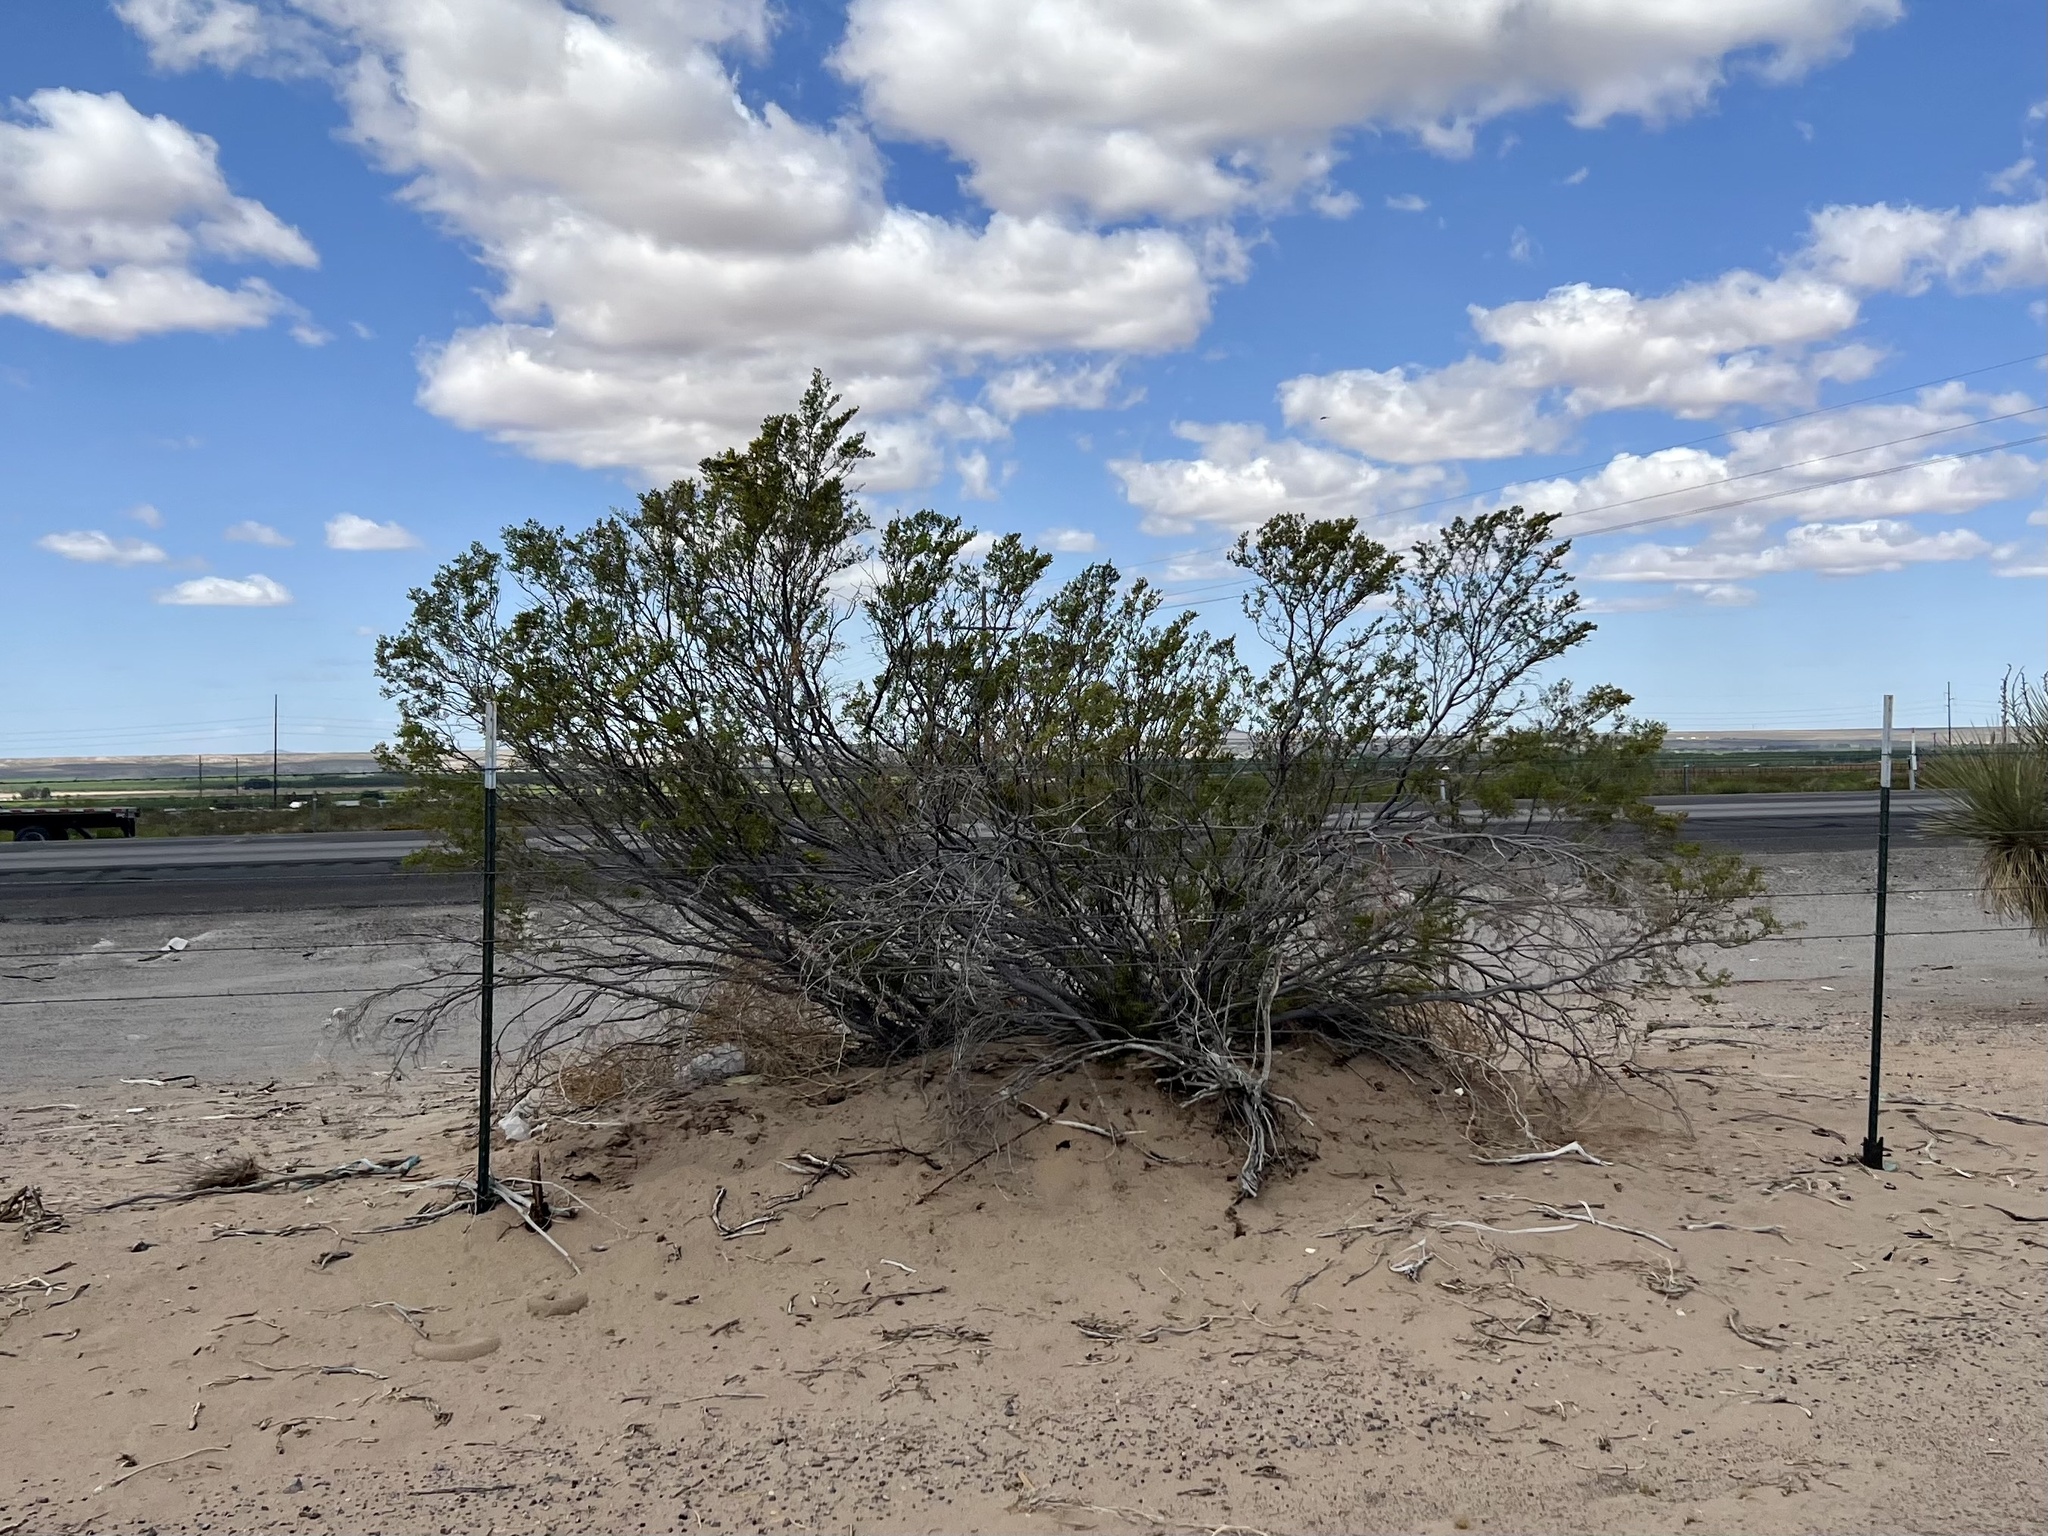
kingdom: Plantae
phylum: Tracheophyta
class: Magnoliopsida
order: Zygophyllales
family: Zygophyllaceae
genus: Larrea
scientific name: Larrea tridentata
